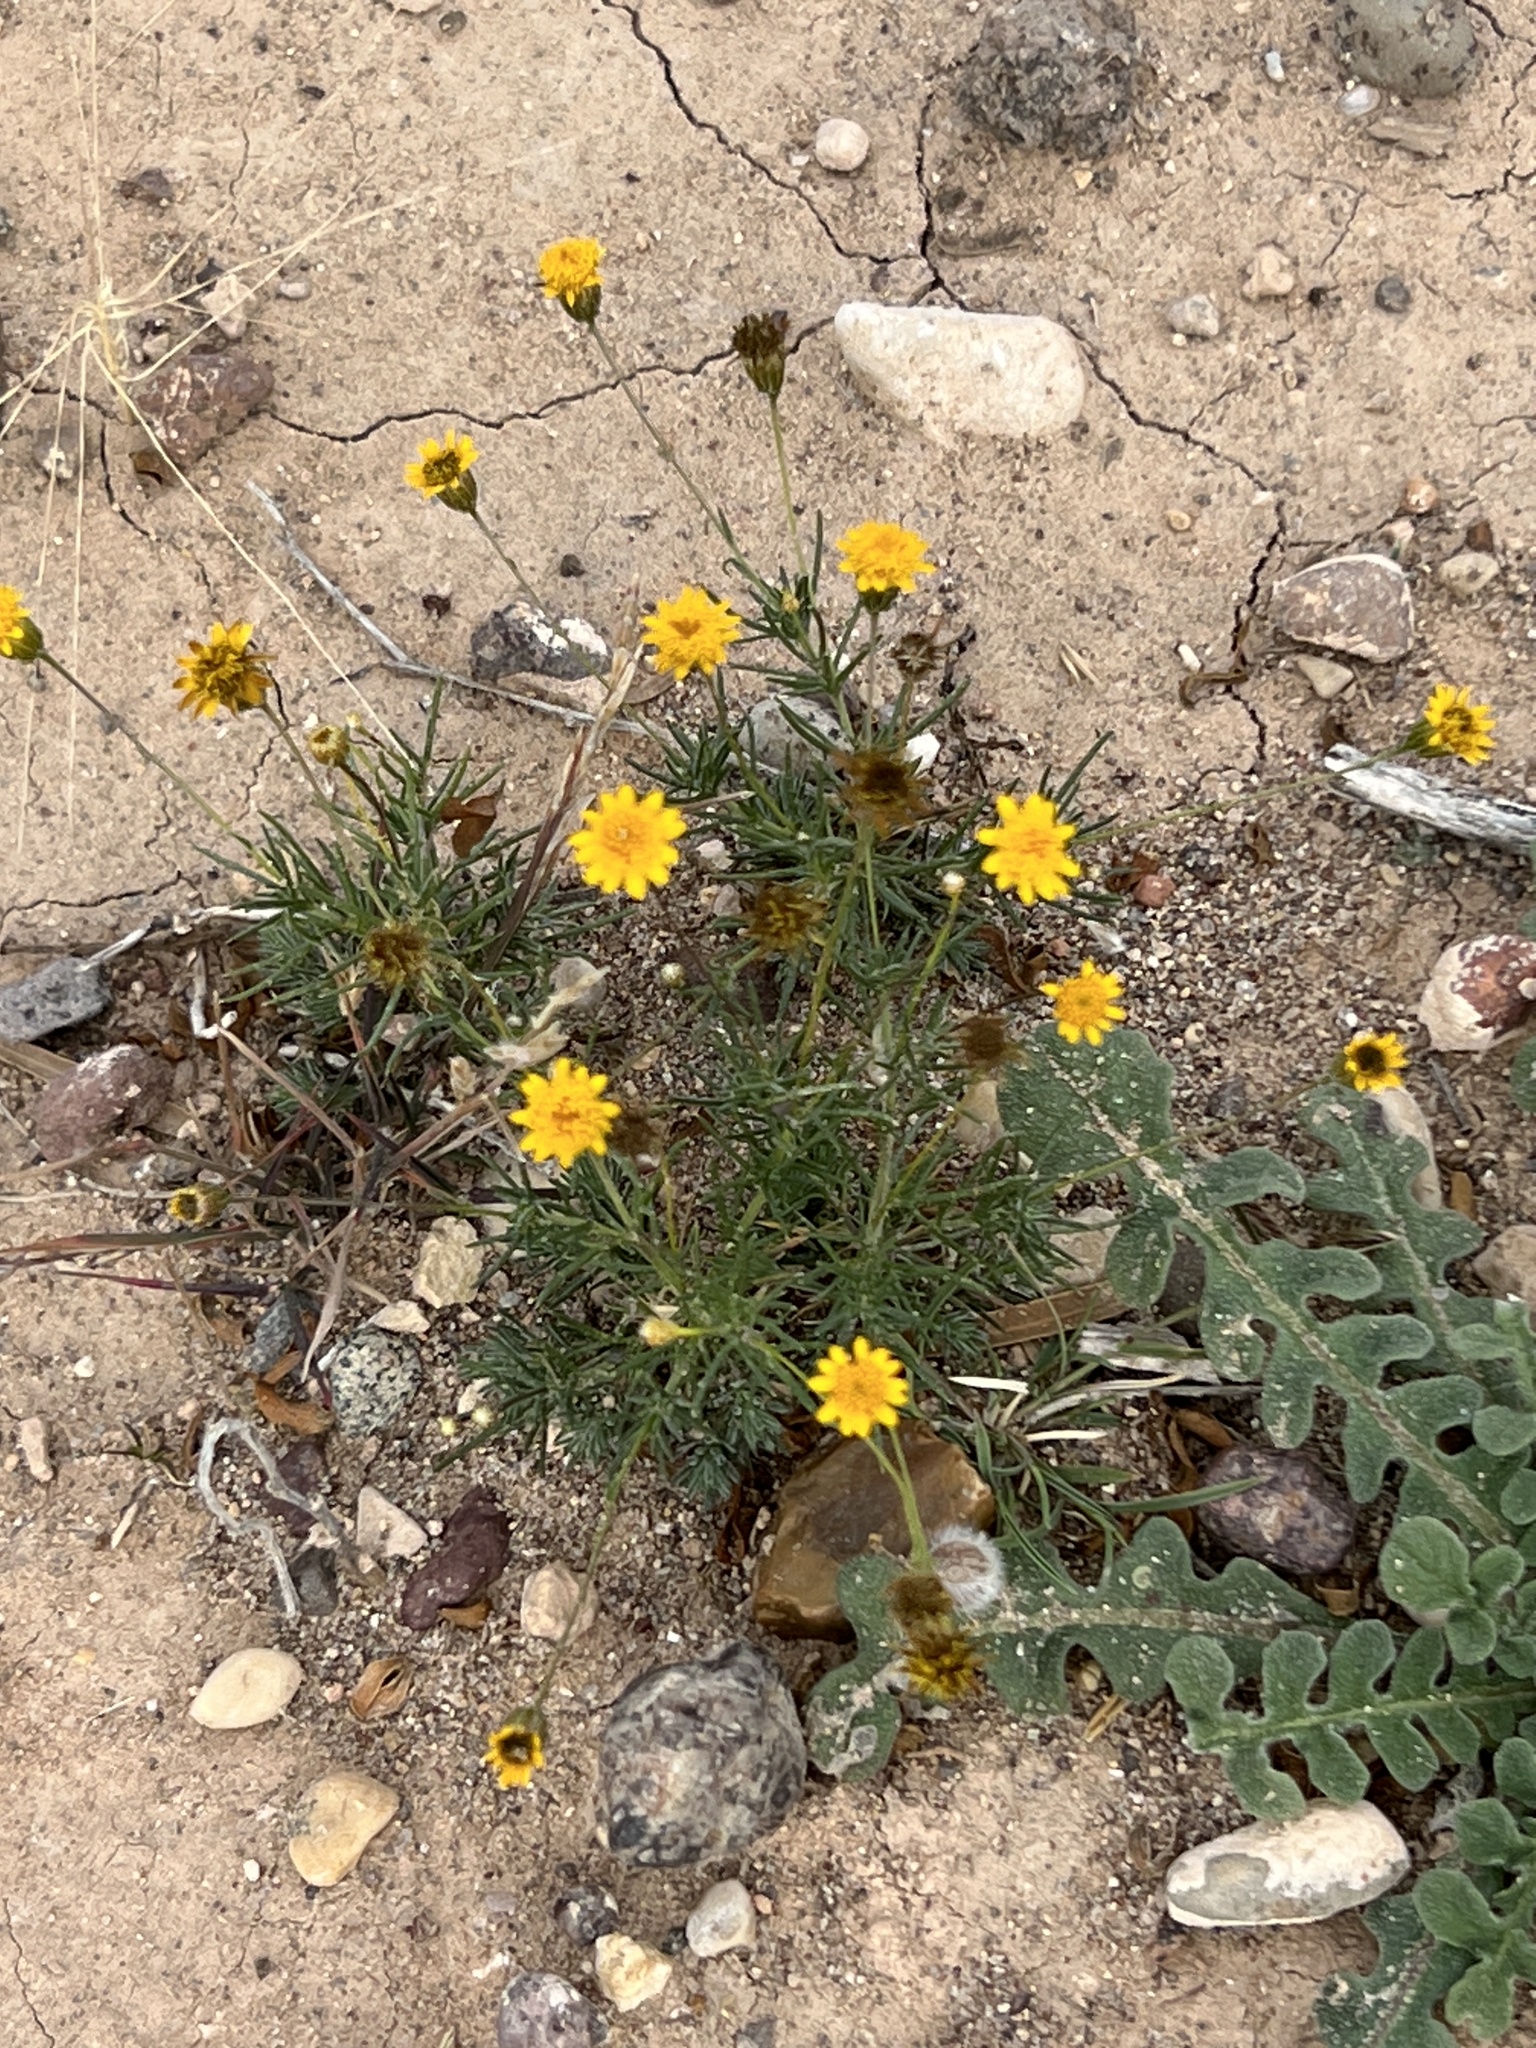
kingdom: Plantae
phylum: Tracheophyta
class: Magnoliopsida
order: Asterales
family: Asteraceae
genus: Thymophylla
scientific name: Thymophylla pentachaeta
